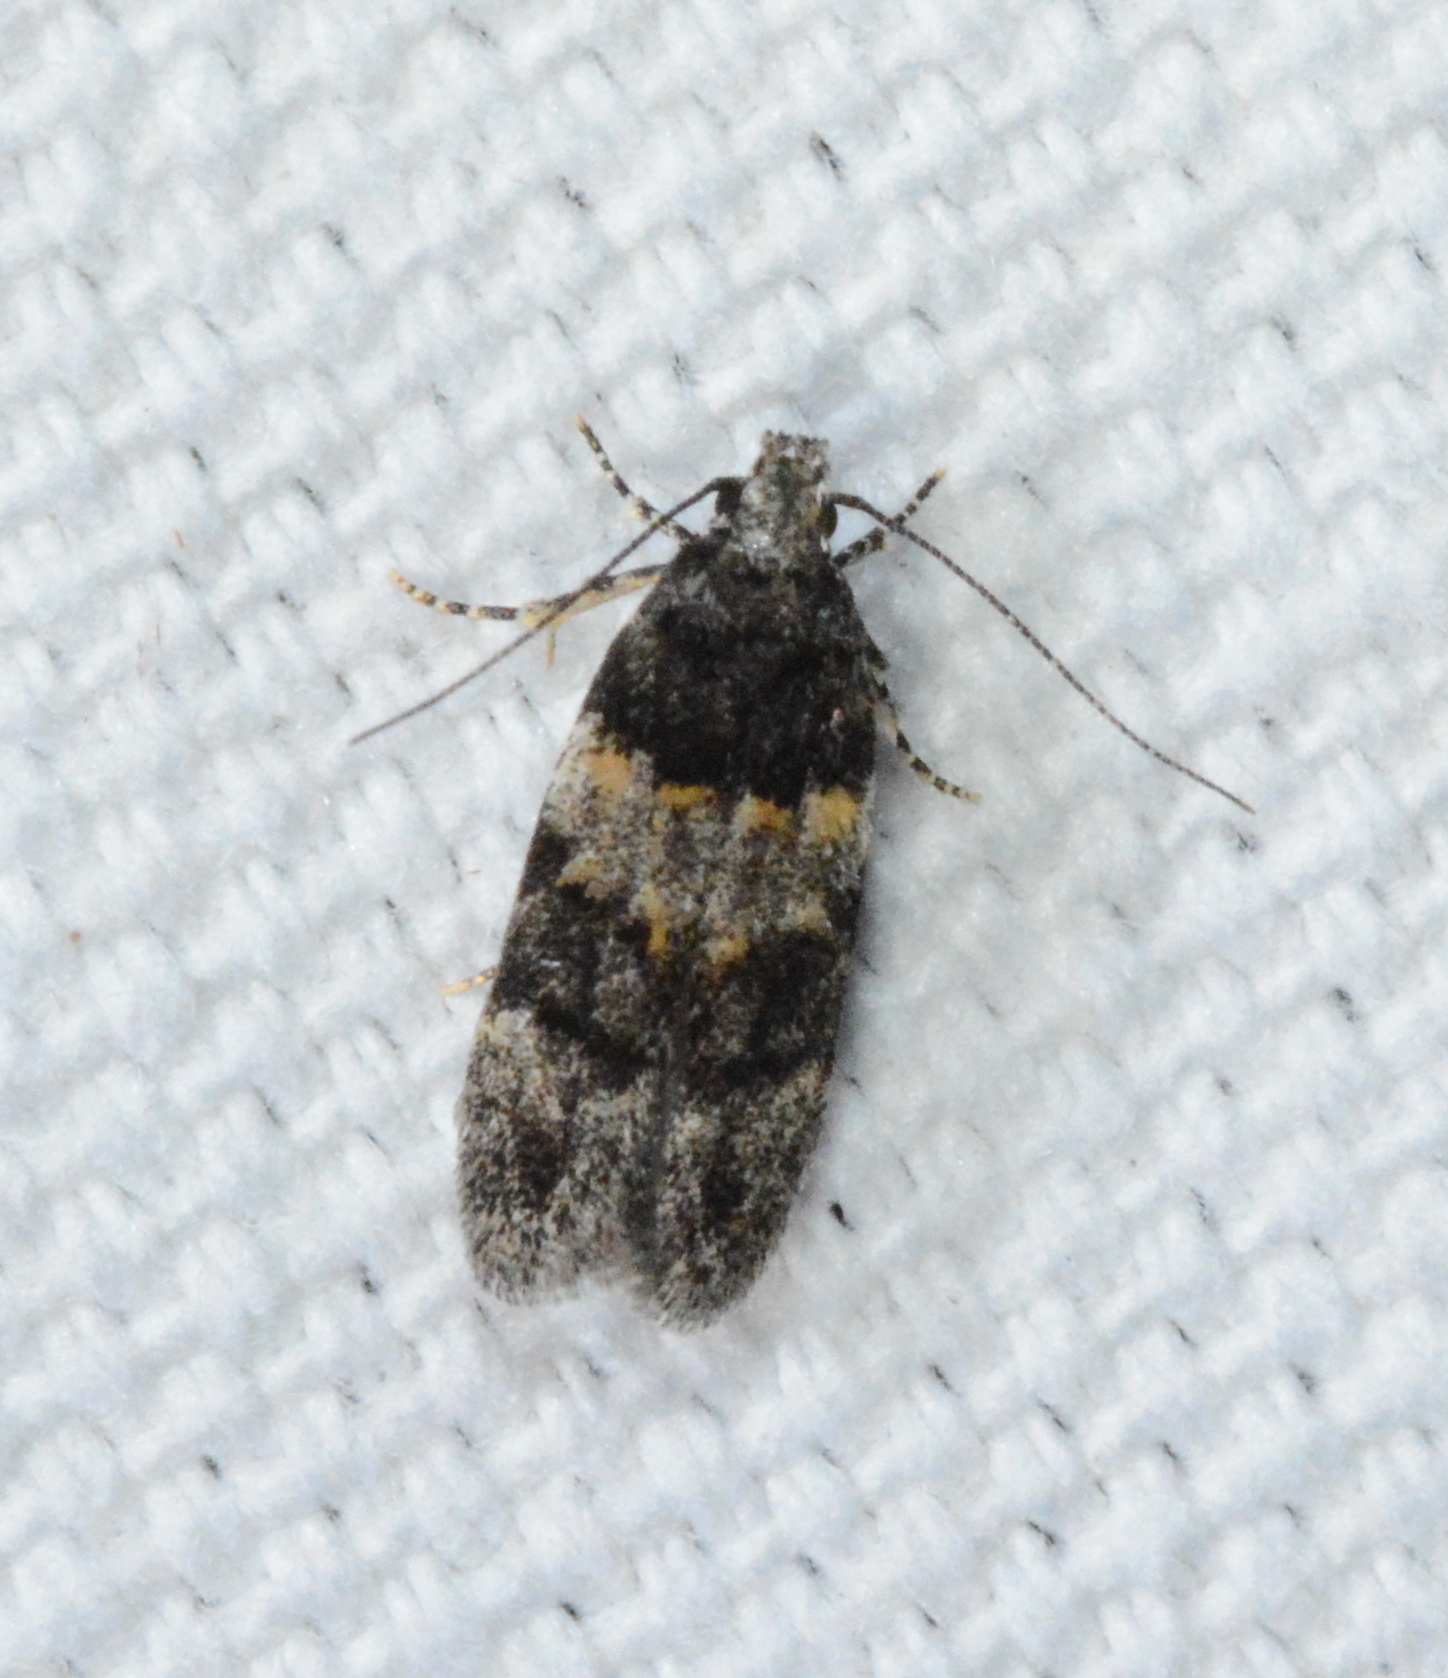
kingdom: Animalia
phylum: Arthropoda
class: Insecta
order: Lepidoptera
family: Gelechiidae
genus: Pubitelphusa
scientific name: Pubitelphusa latifasciella
